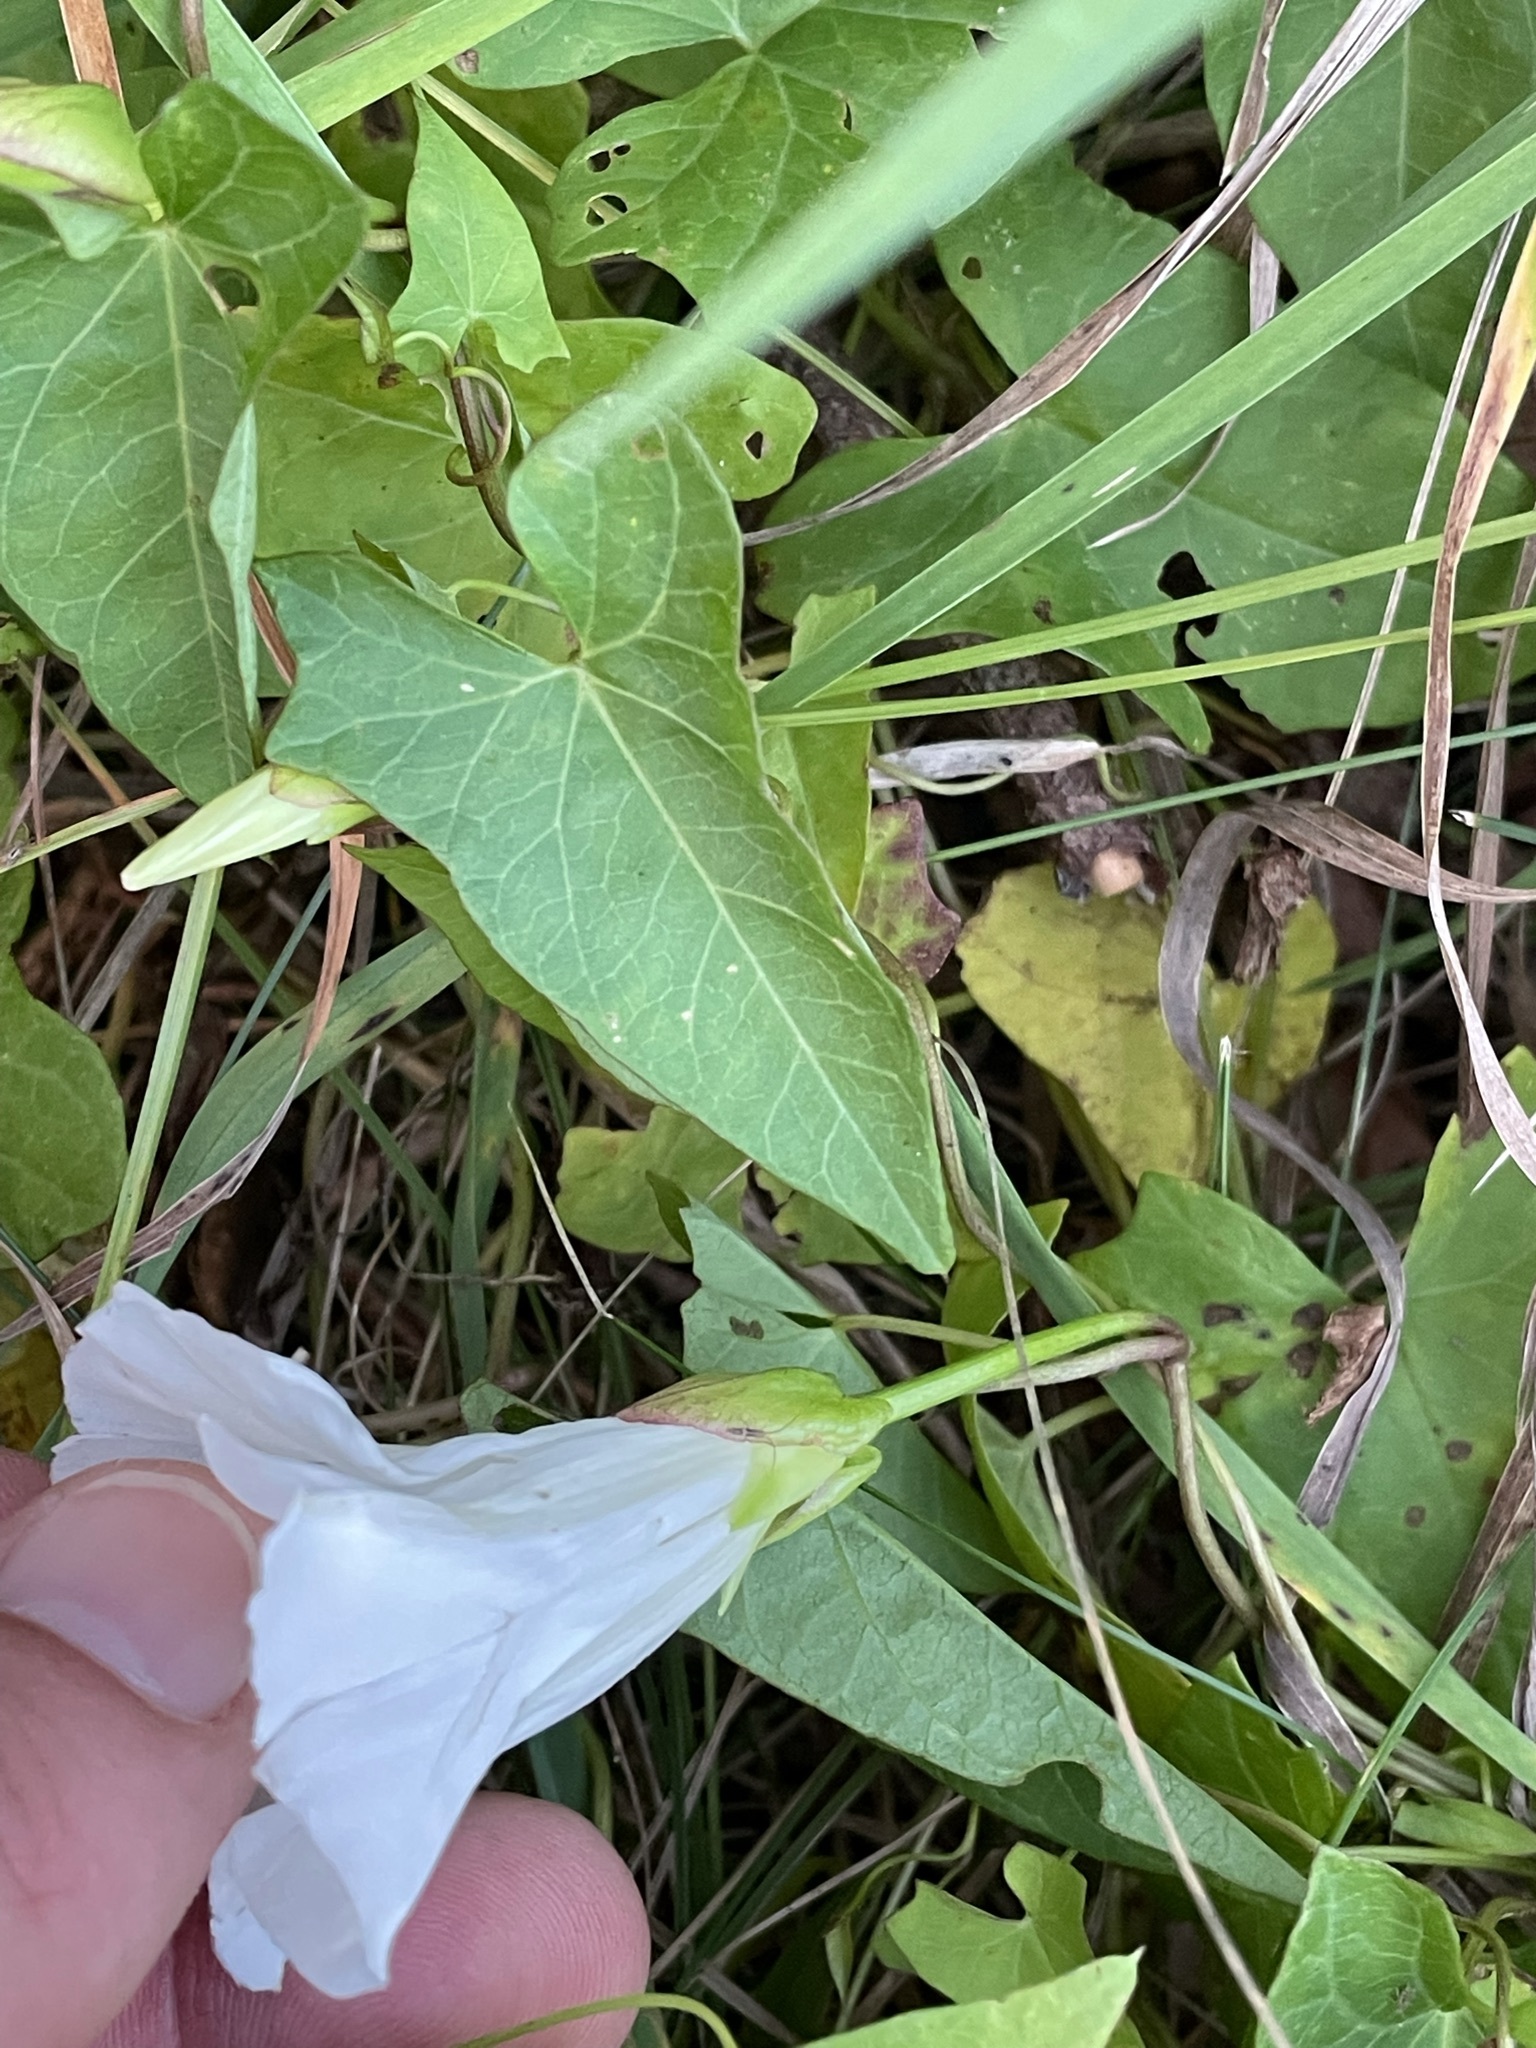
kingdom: Plantae
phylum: Tracheophyta
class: Magnoliopsida
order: Solanales
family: Convolvulaceae
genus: Calystegia
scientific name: Calystegia sepium
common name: Hedge bindweed
